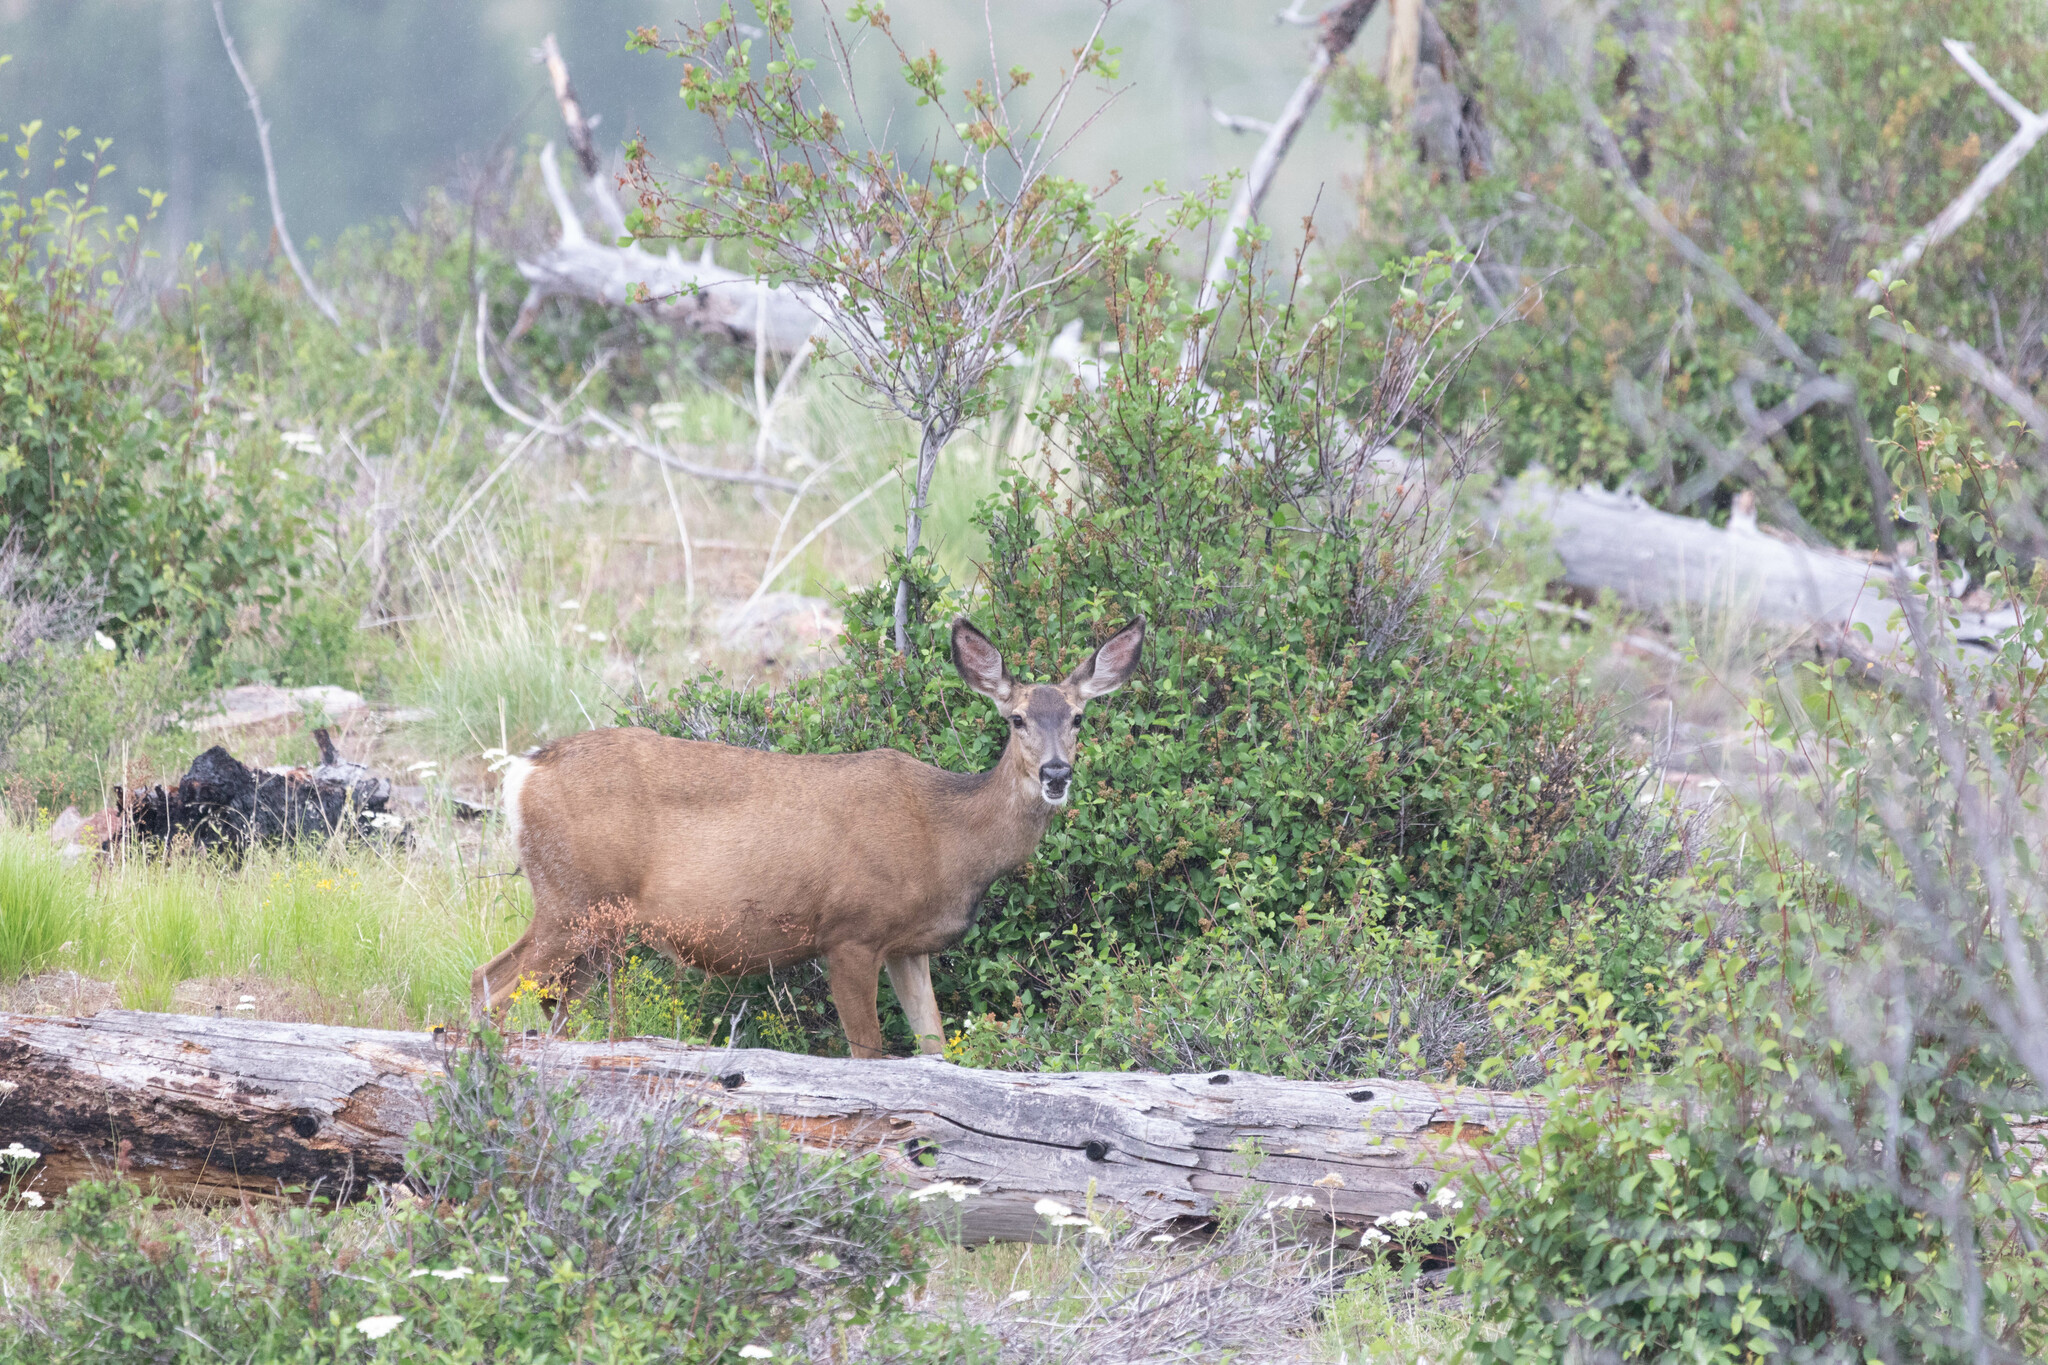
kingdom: Animalia
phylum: Chordata
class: Mammalia
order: Artiodactyla
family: Cervidae
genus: Odocoileus
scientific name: Odocoileus hemionus
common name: Mule deer
